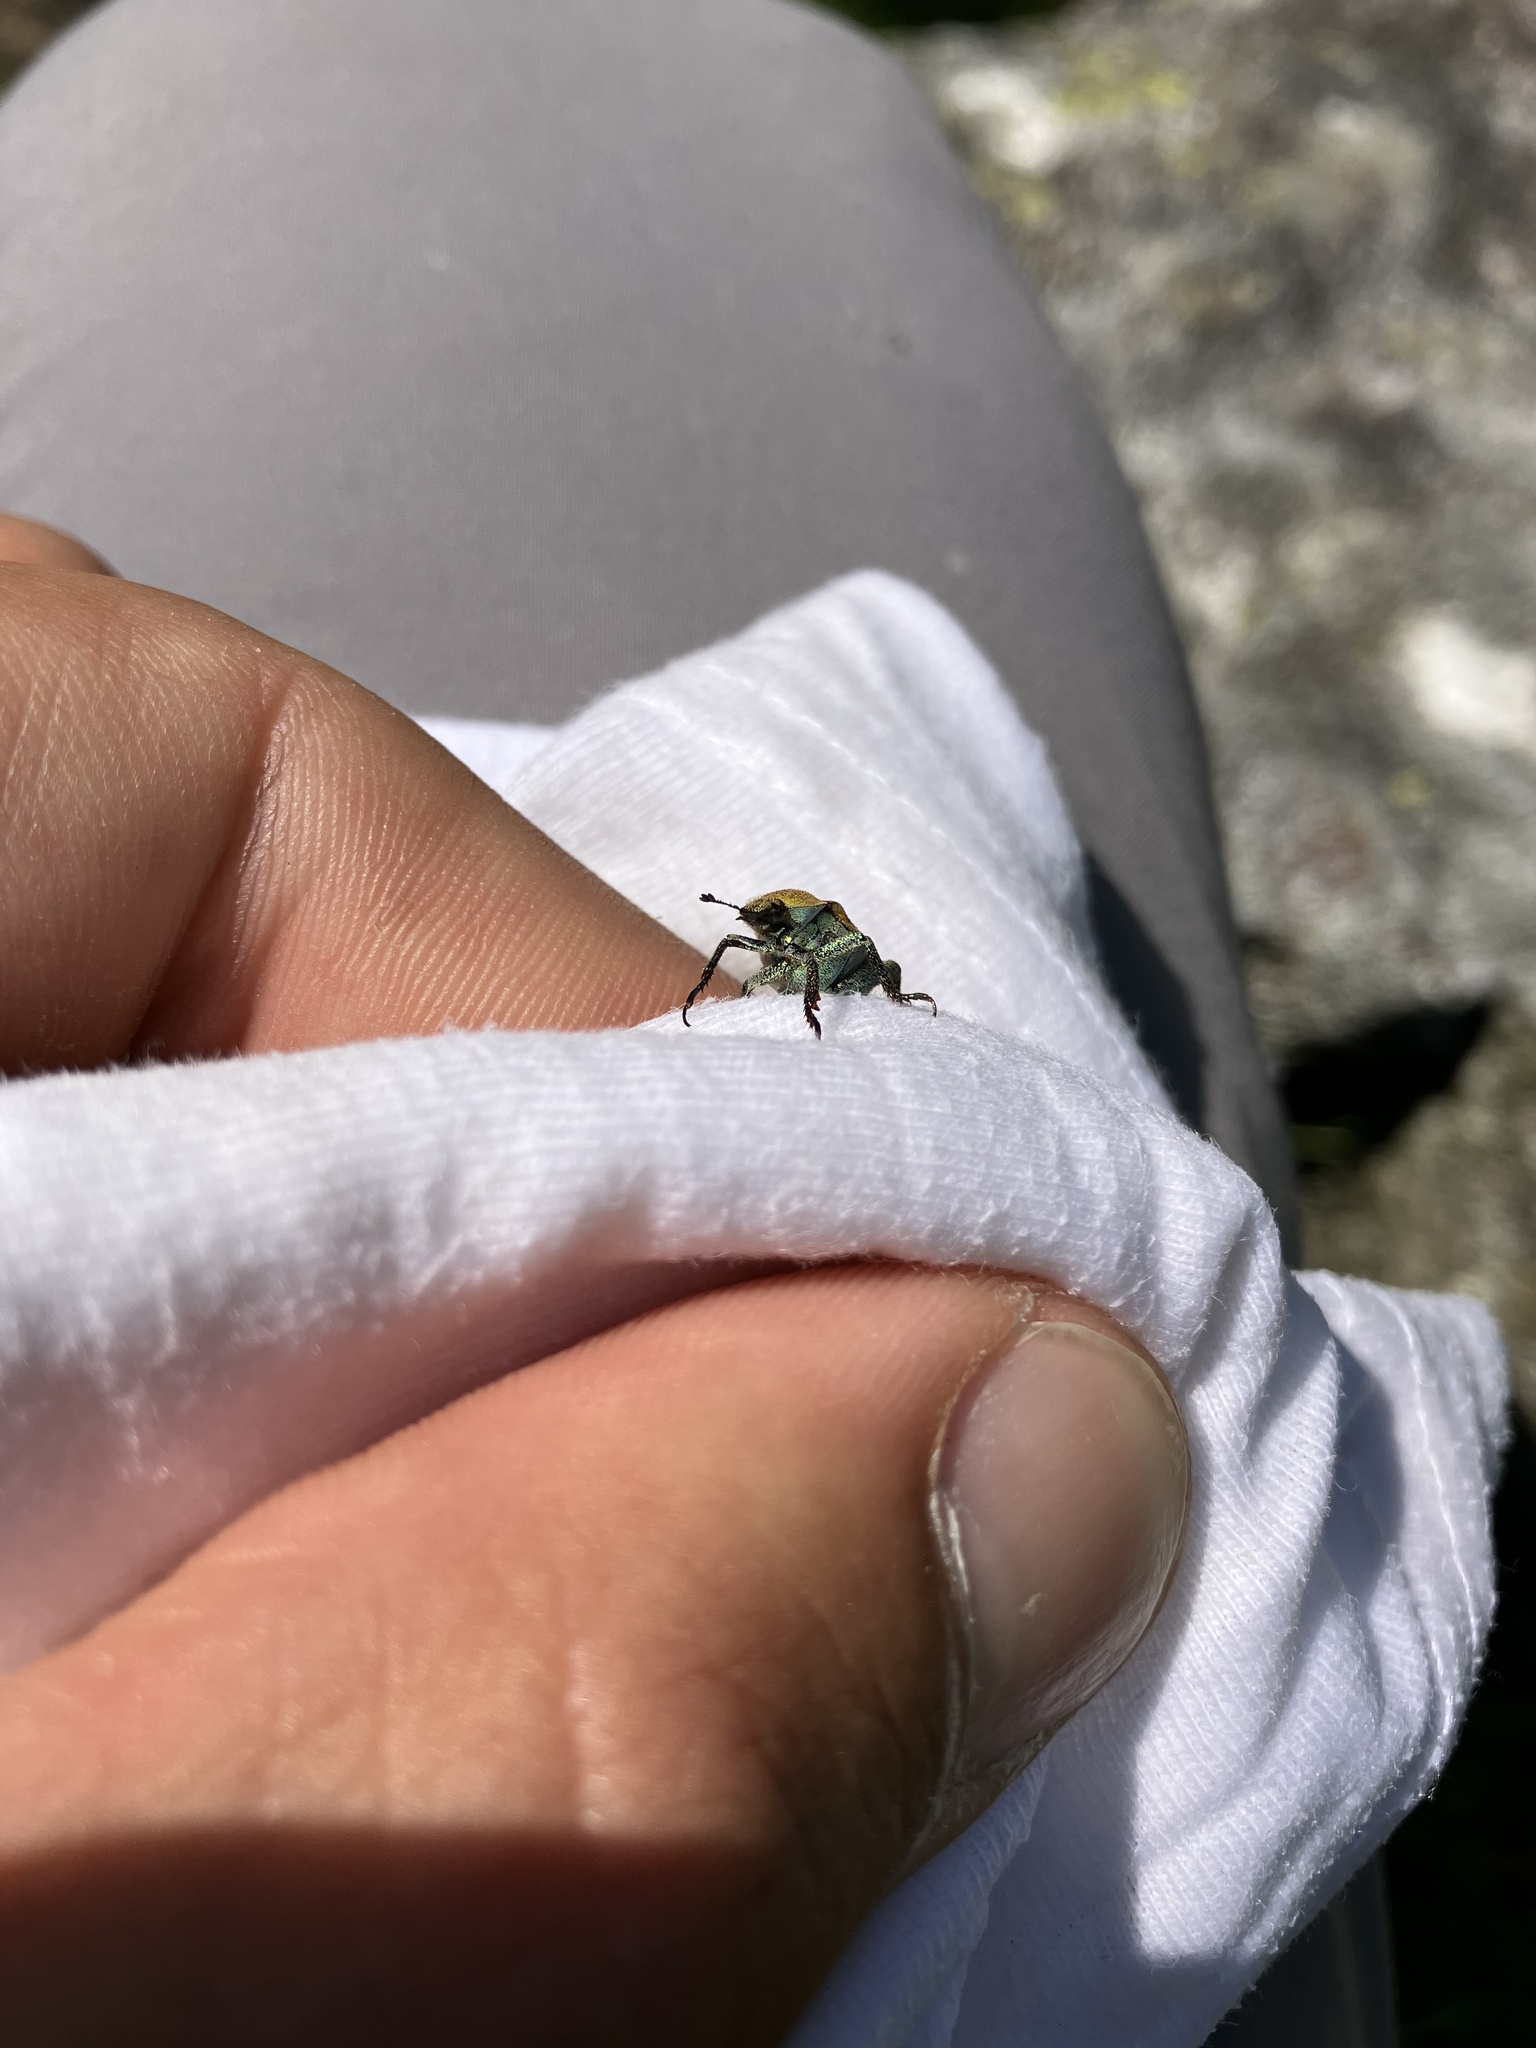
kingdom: Animalia
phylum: Arthropoda
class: Insecta
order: Coleoptera
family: Scarabaeidae
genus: Hoplia
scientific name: Hoplia argentea
